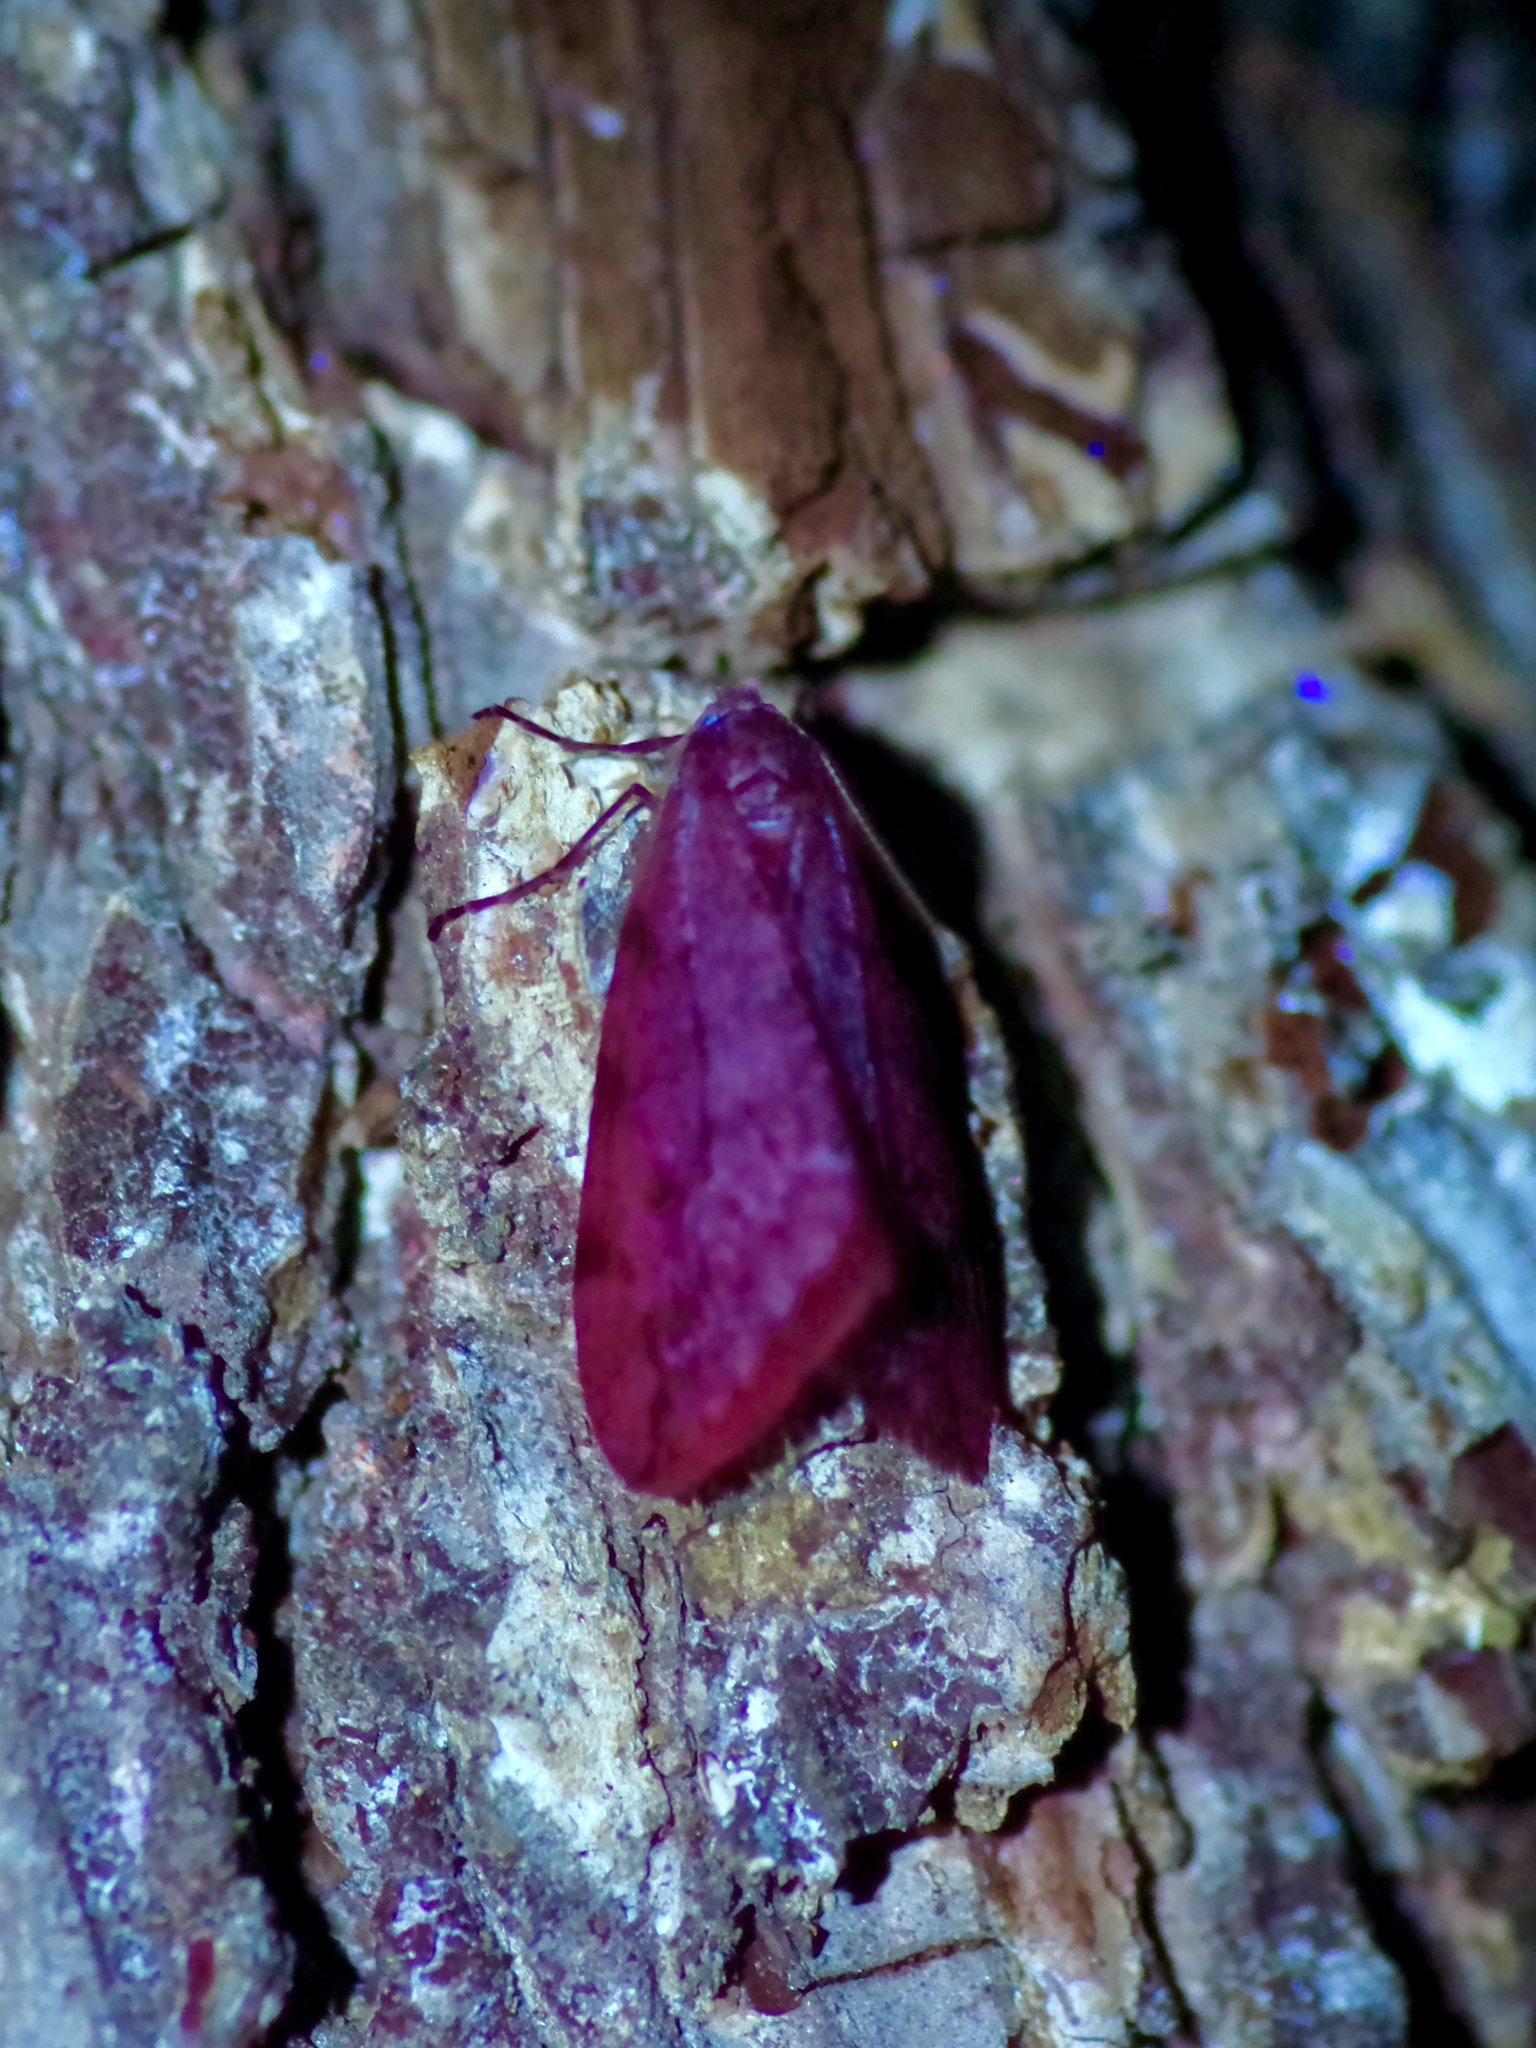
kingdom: Animalia
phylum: Arthropoda
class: Insecta
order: Lepidoptera
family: Geometridae
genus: Paleacrita
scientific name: Paleacrita vernata
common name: Spring cankerworm
